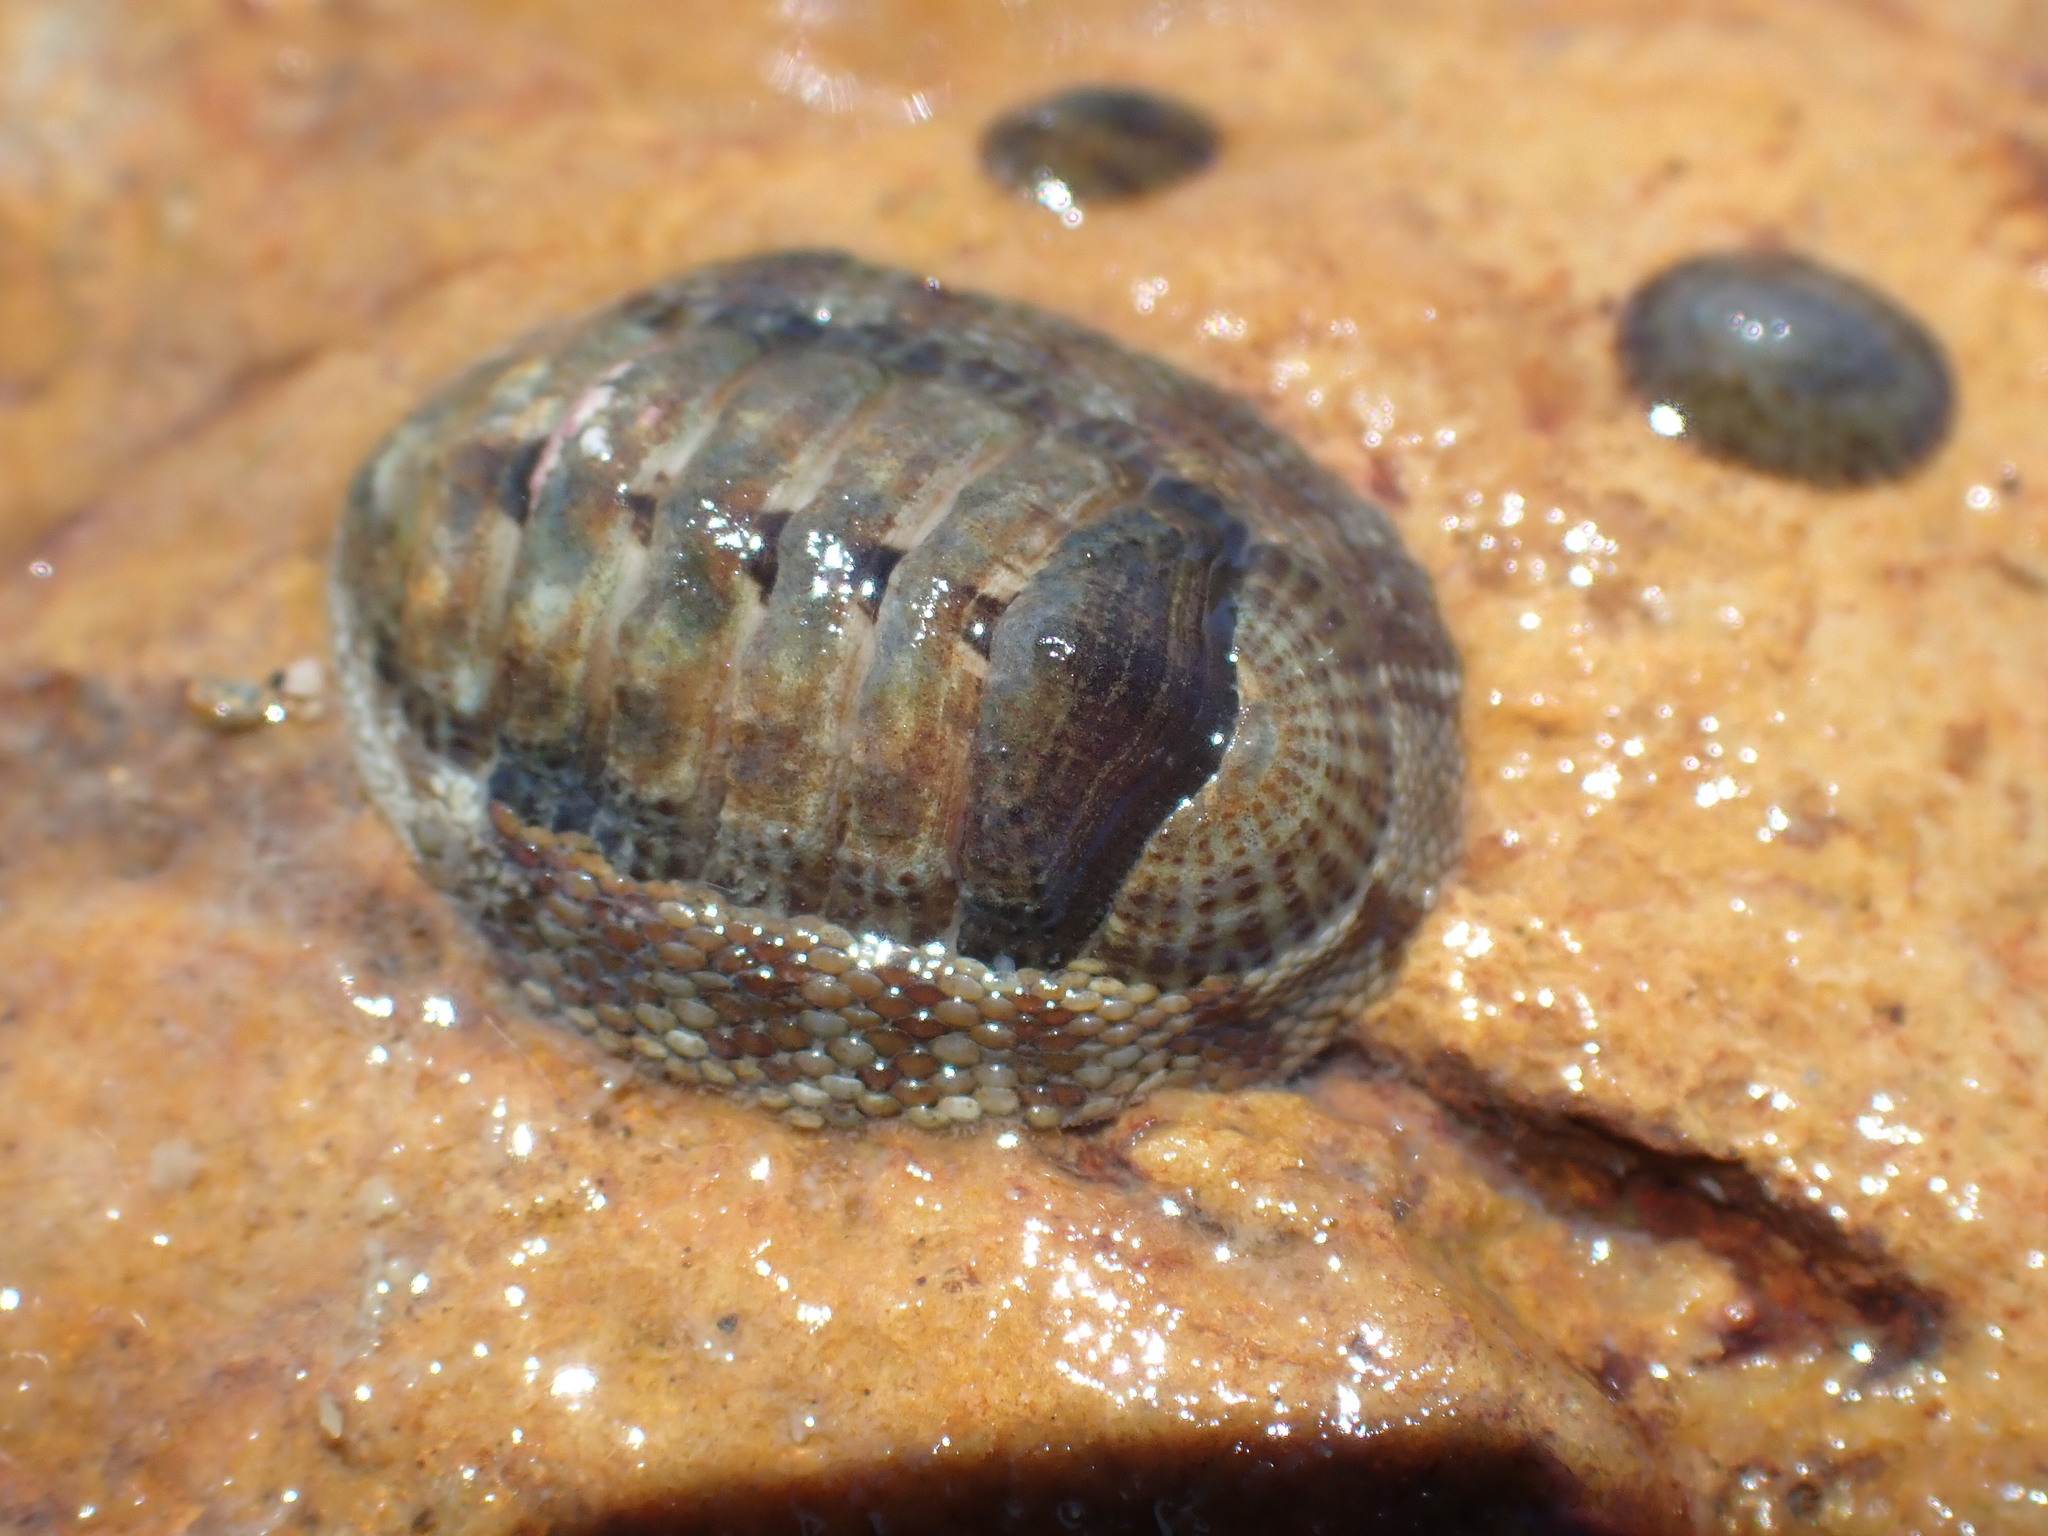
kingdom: Animalia
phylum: Mollusca
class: Polyplacophora
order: Chitonida
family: Chitonidae
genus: Sypharochiton
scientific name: Sypharochiton pelliserpentis
